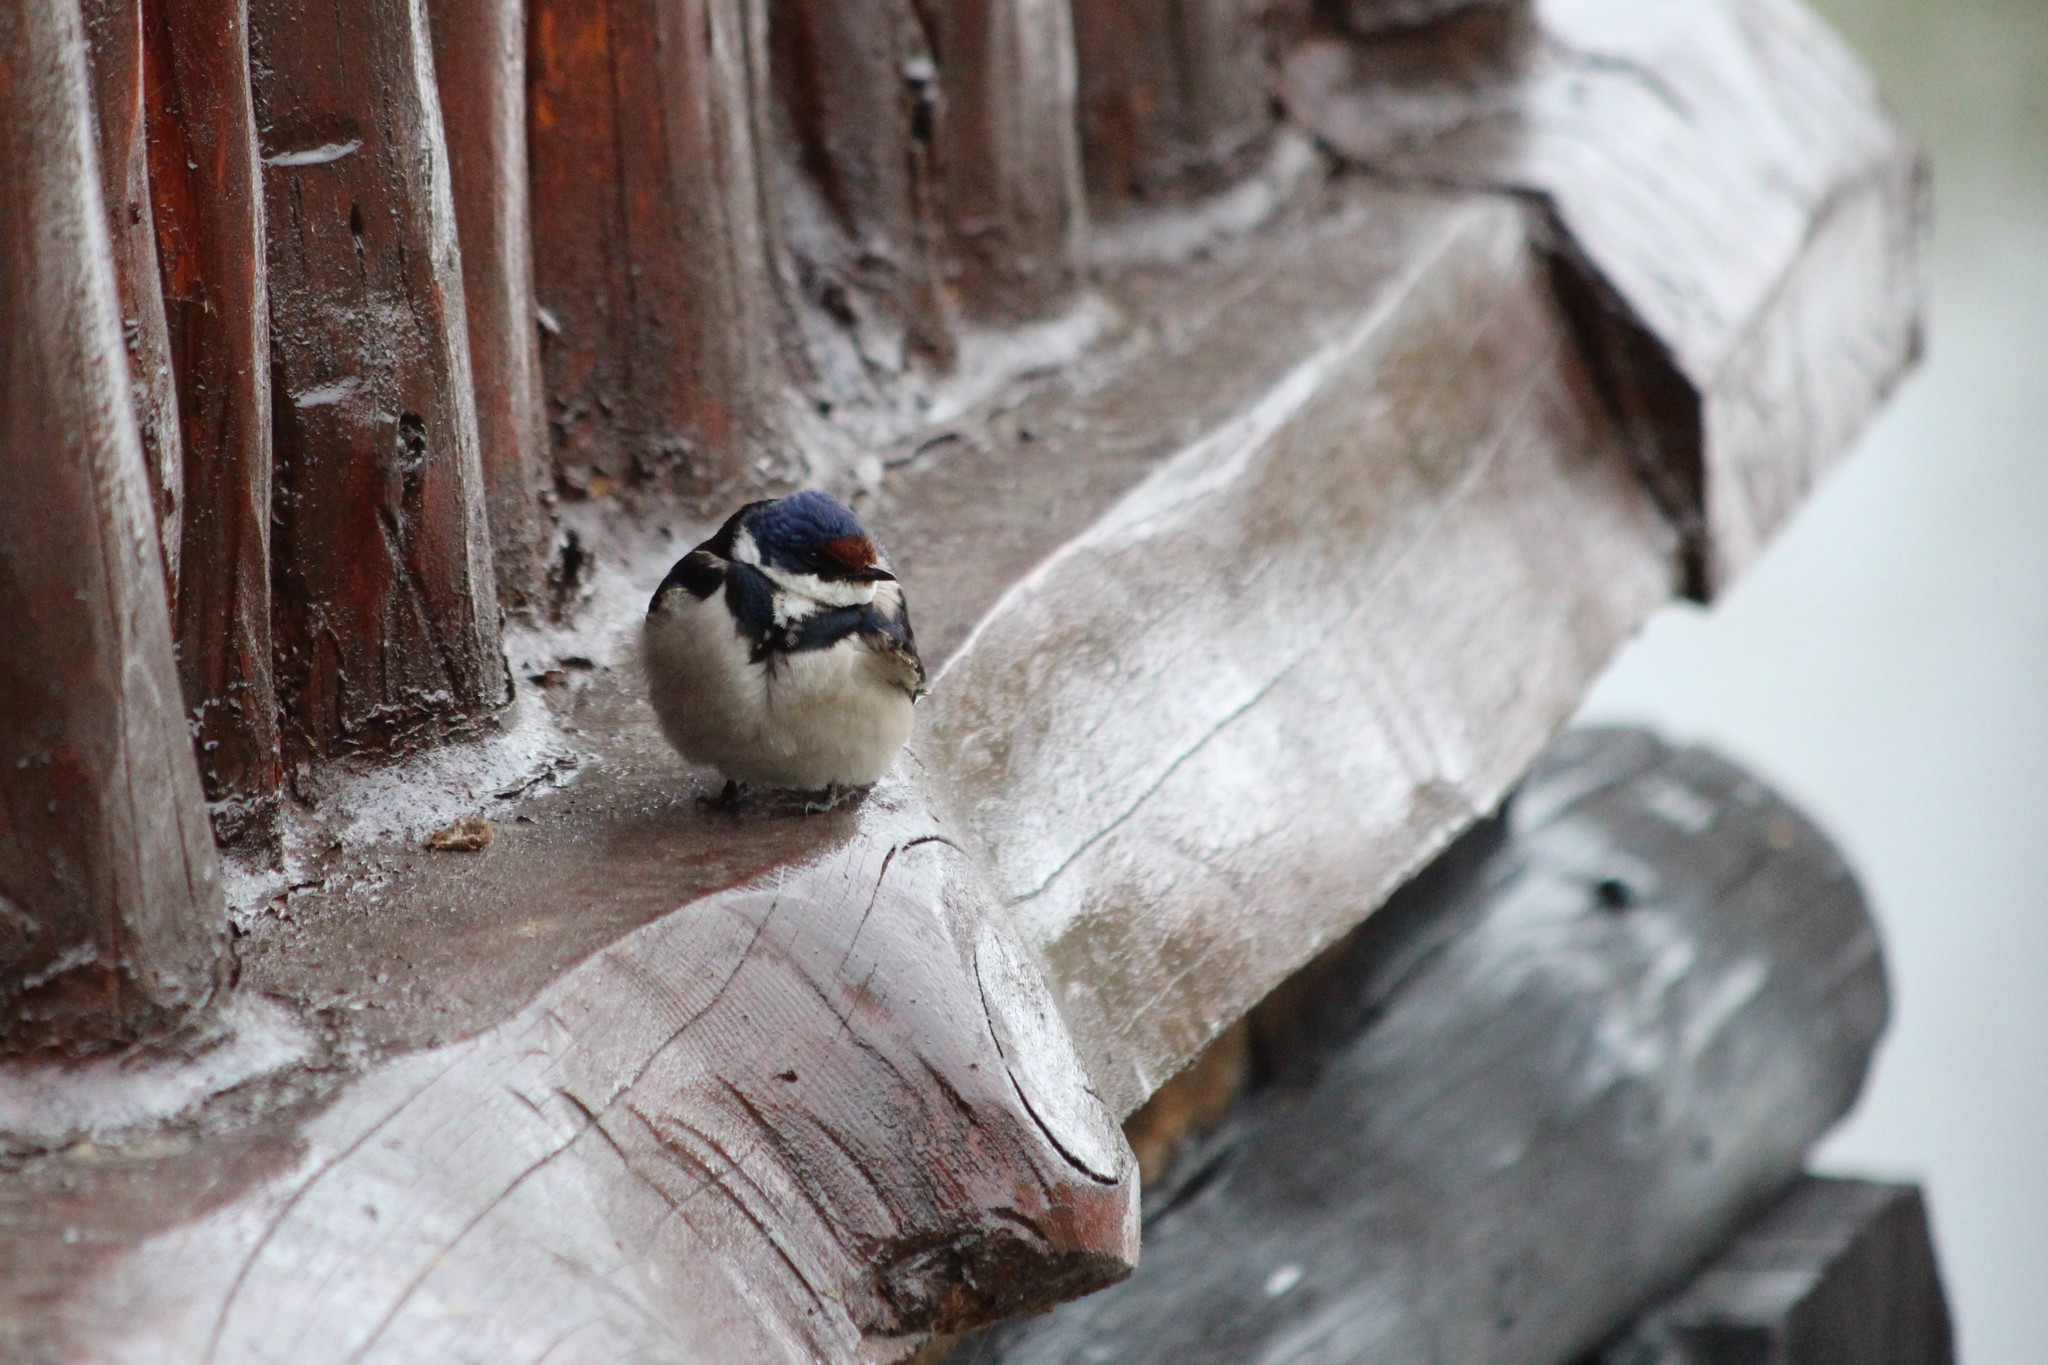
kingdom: Animalia
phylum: Chordata
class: Aves
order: Passeriformes
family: Hirundinidae
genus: Hirundo
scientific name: Hirundo albigularis
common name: White-throated swallow
